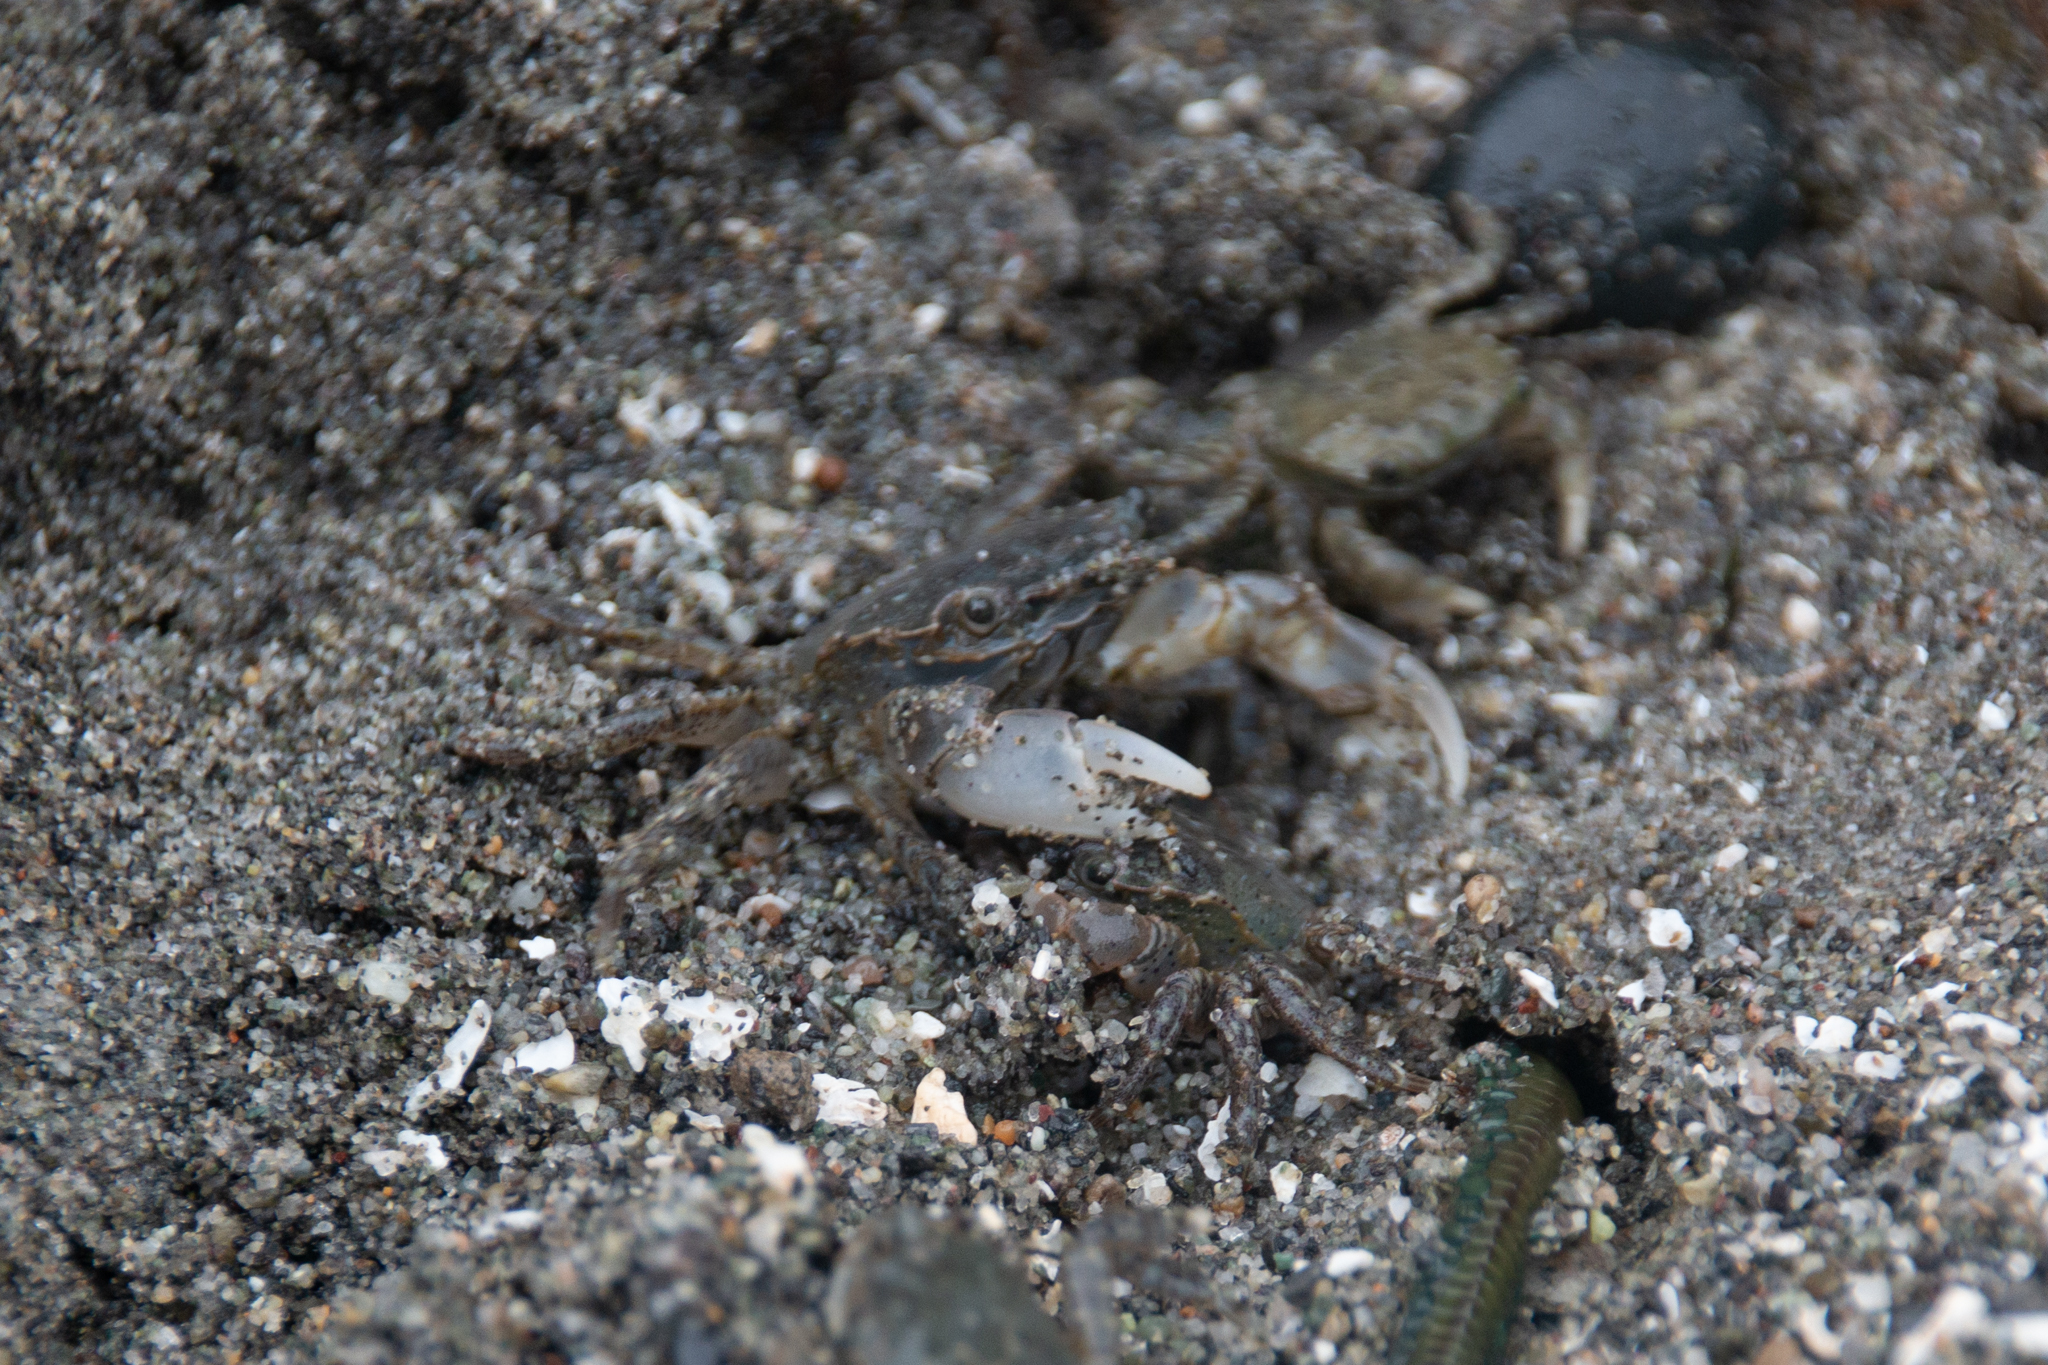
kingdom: Animalia
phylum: Arthropoda
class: Malacostraca
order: Decapoda
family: Varunidae
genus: Hemigrapsus
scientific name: Hemigrapsus oregonensis
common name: Yellow shore crab
